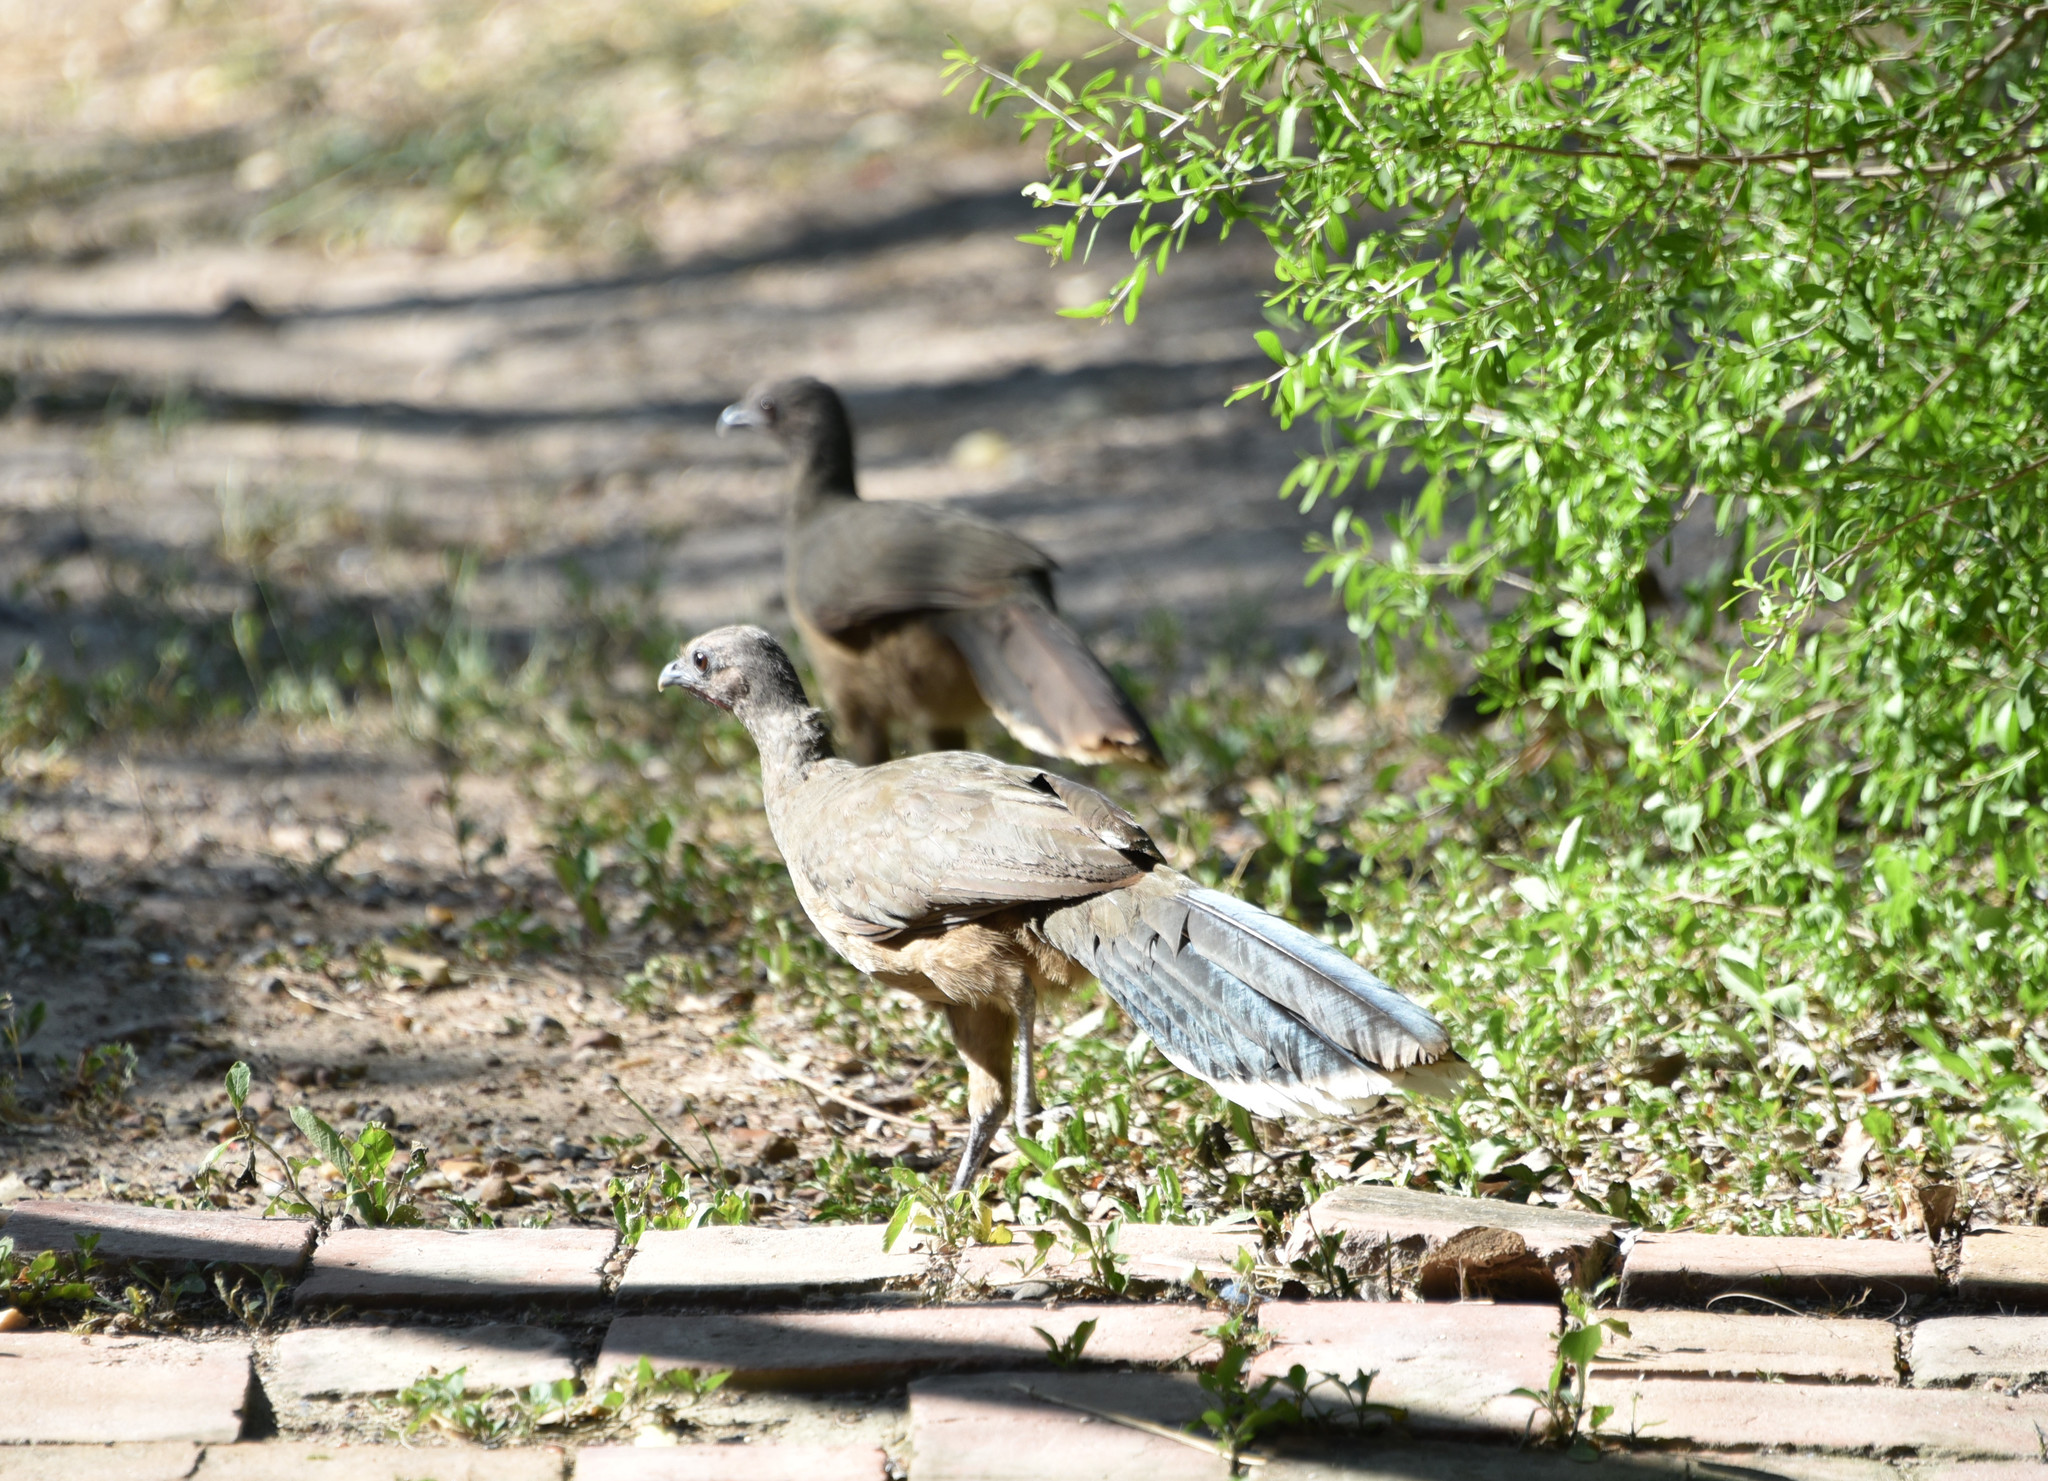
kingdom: Animalia
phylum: Chordata
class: Aves
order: Galliformes
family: Cracidae
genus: Ortalis
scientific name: Ortalis vetula
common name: Plain chachalaca
